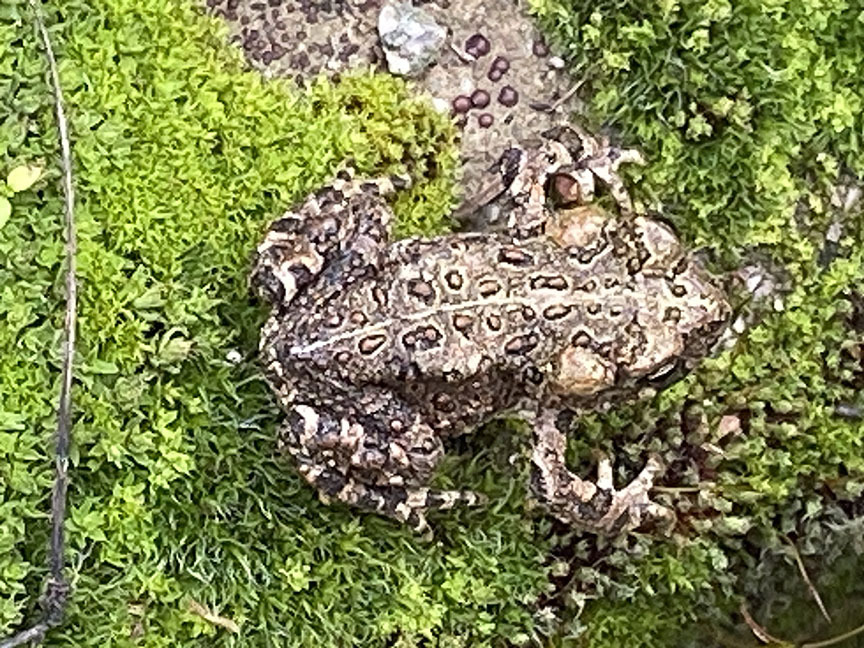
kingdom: Animalia
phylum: Chordata
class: Amphibia
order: Anura
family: Bufonidae
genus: Anaxyrus
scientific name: Anaxyrus boreas
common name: Western toad
